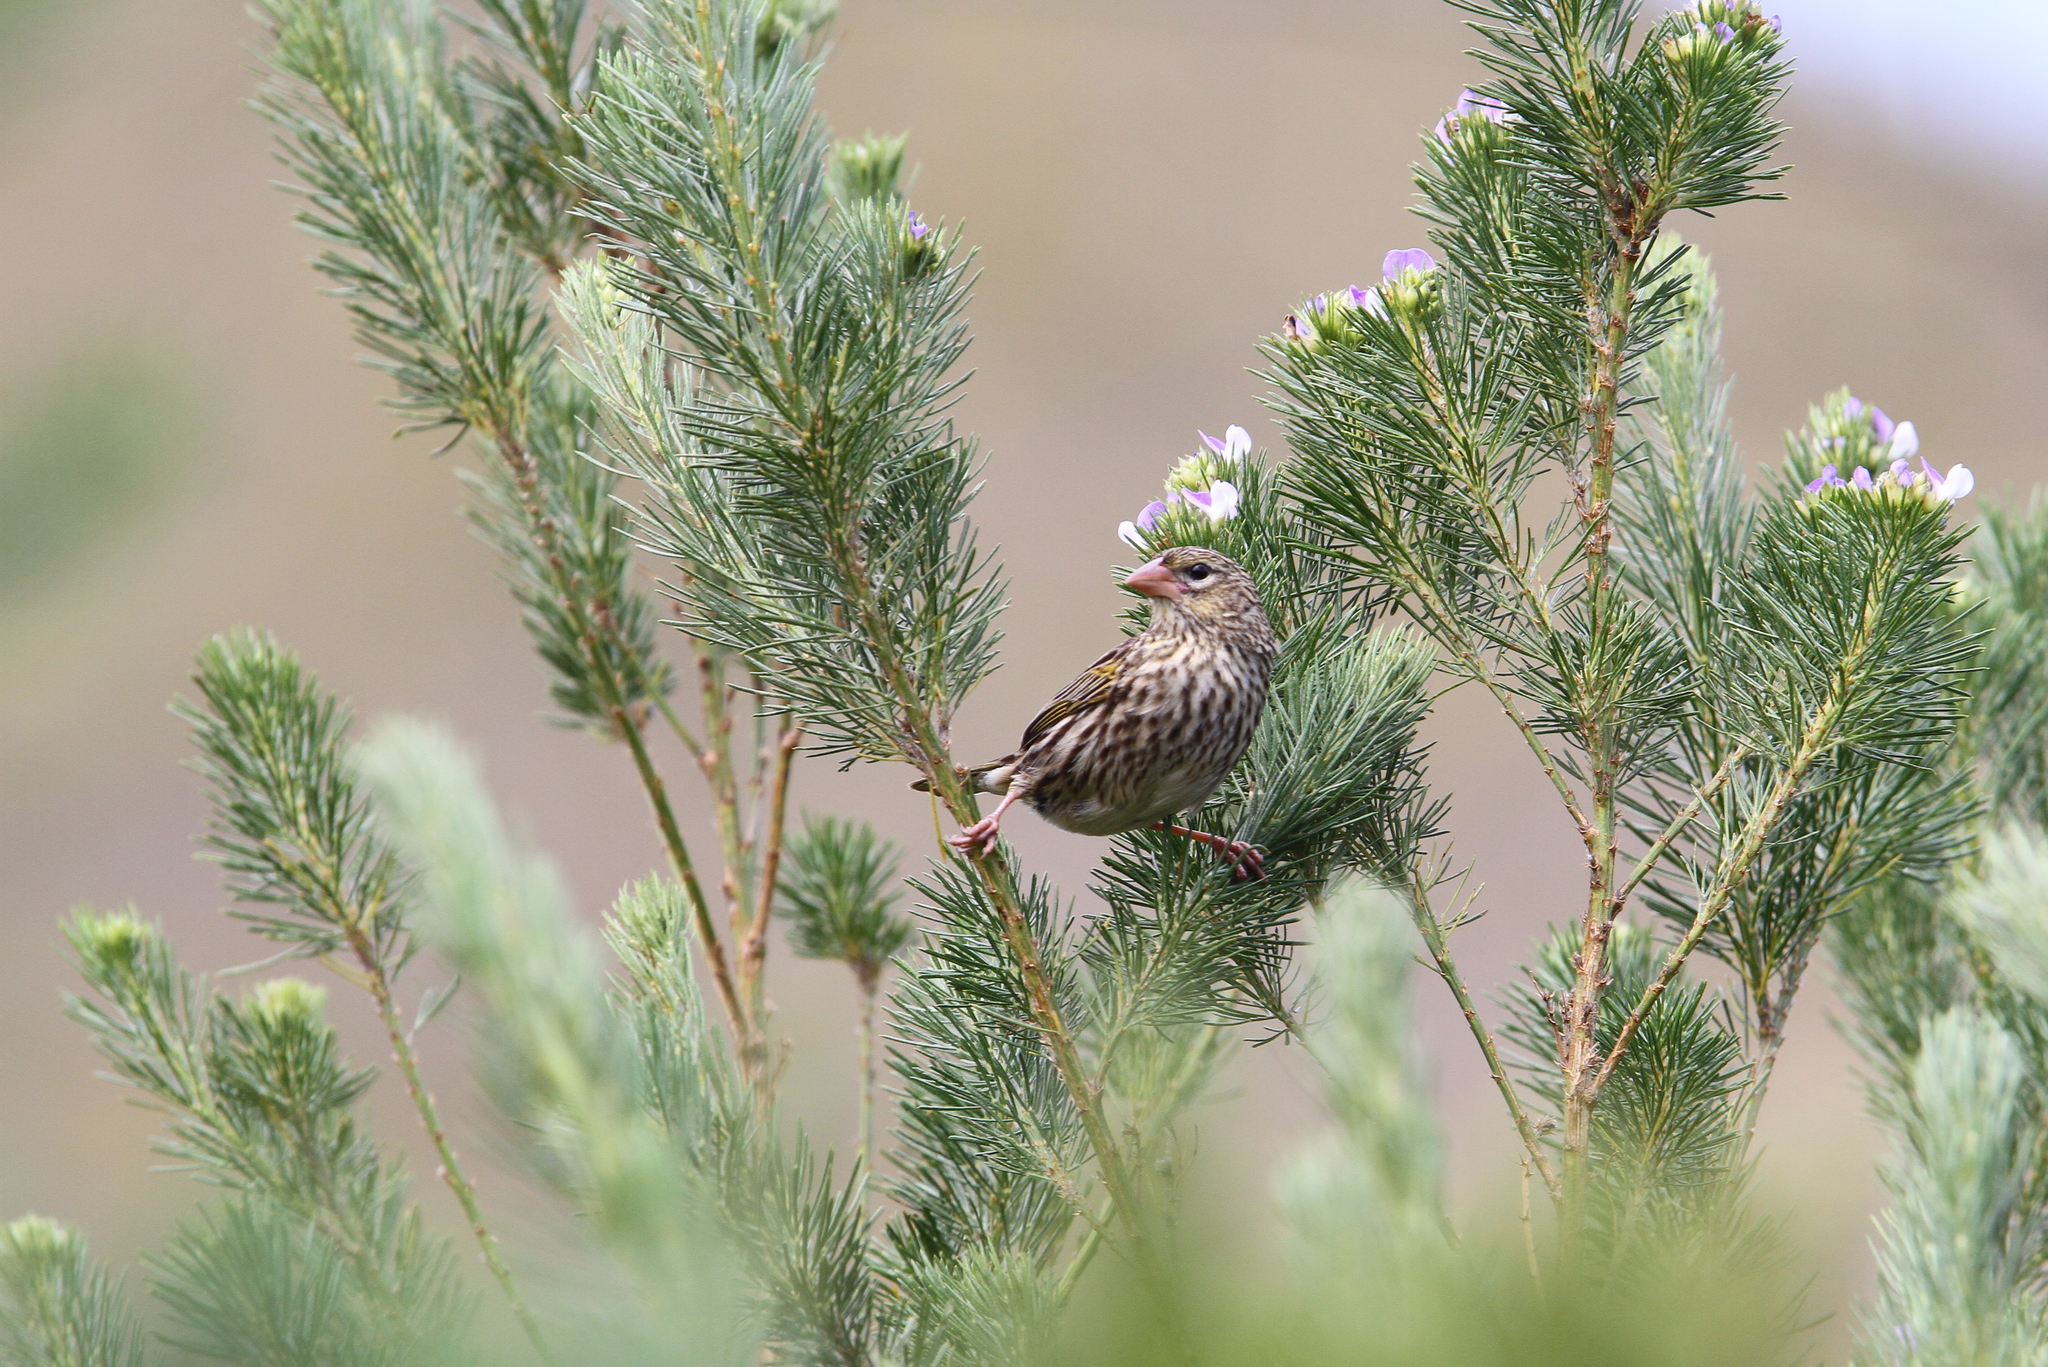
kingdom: Animalia
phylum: Chordata
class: Aves
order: Passeriformes
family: Ploceidae
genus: Euplectes
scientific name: Euplectes capensis
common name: Yellow bishop
